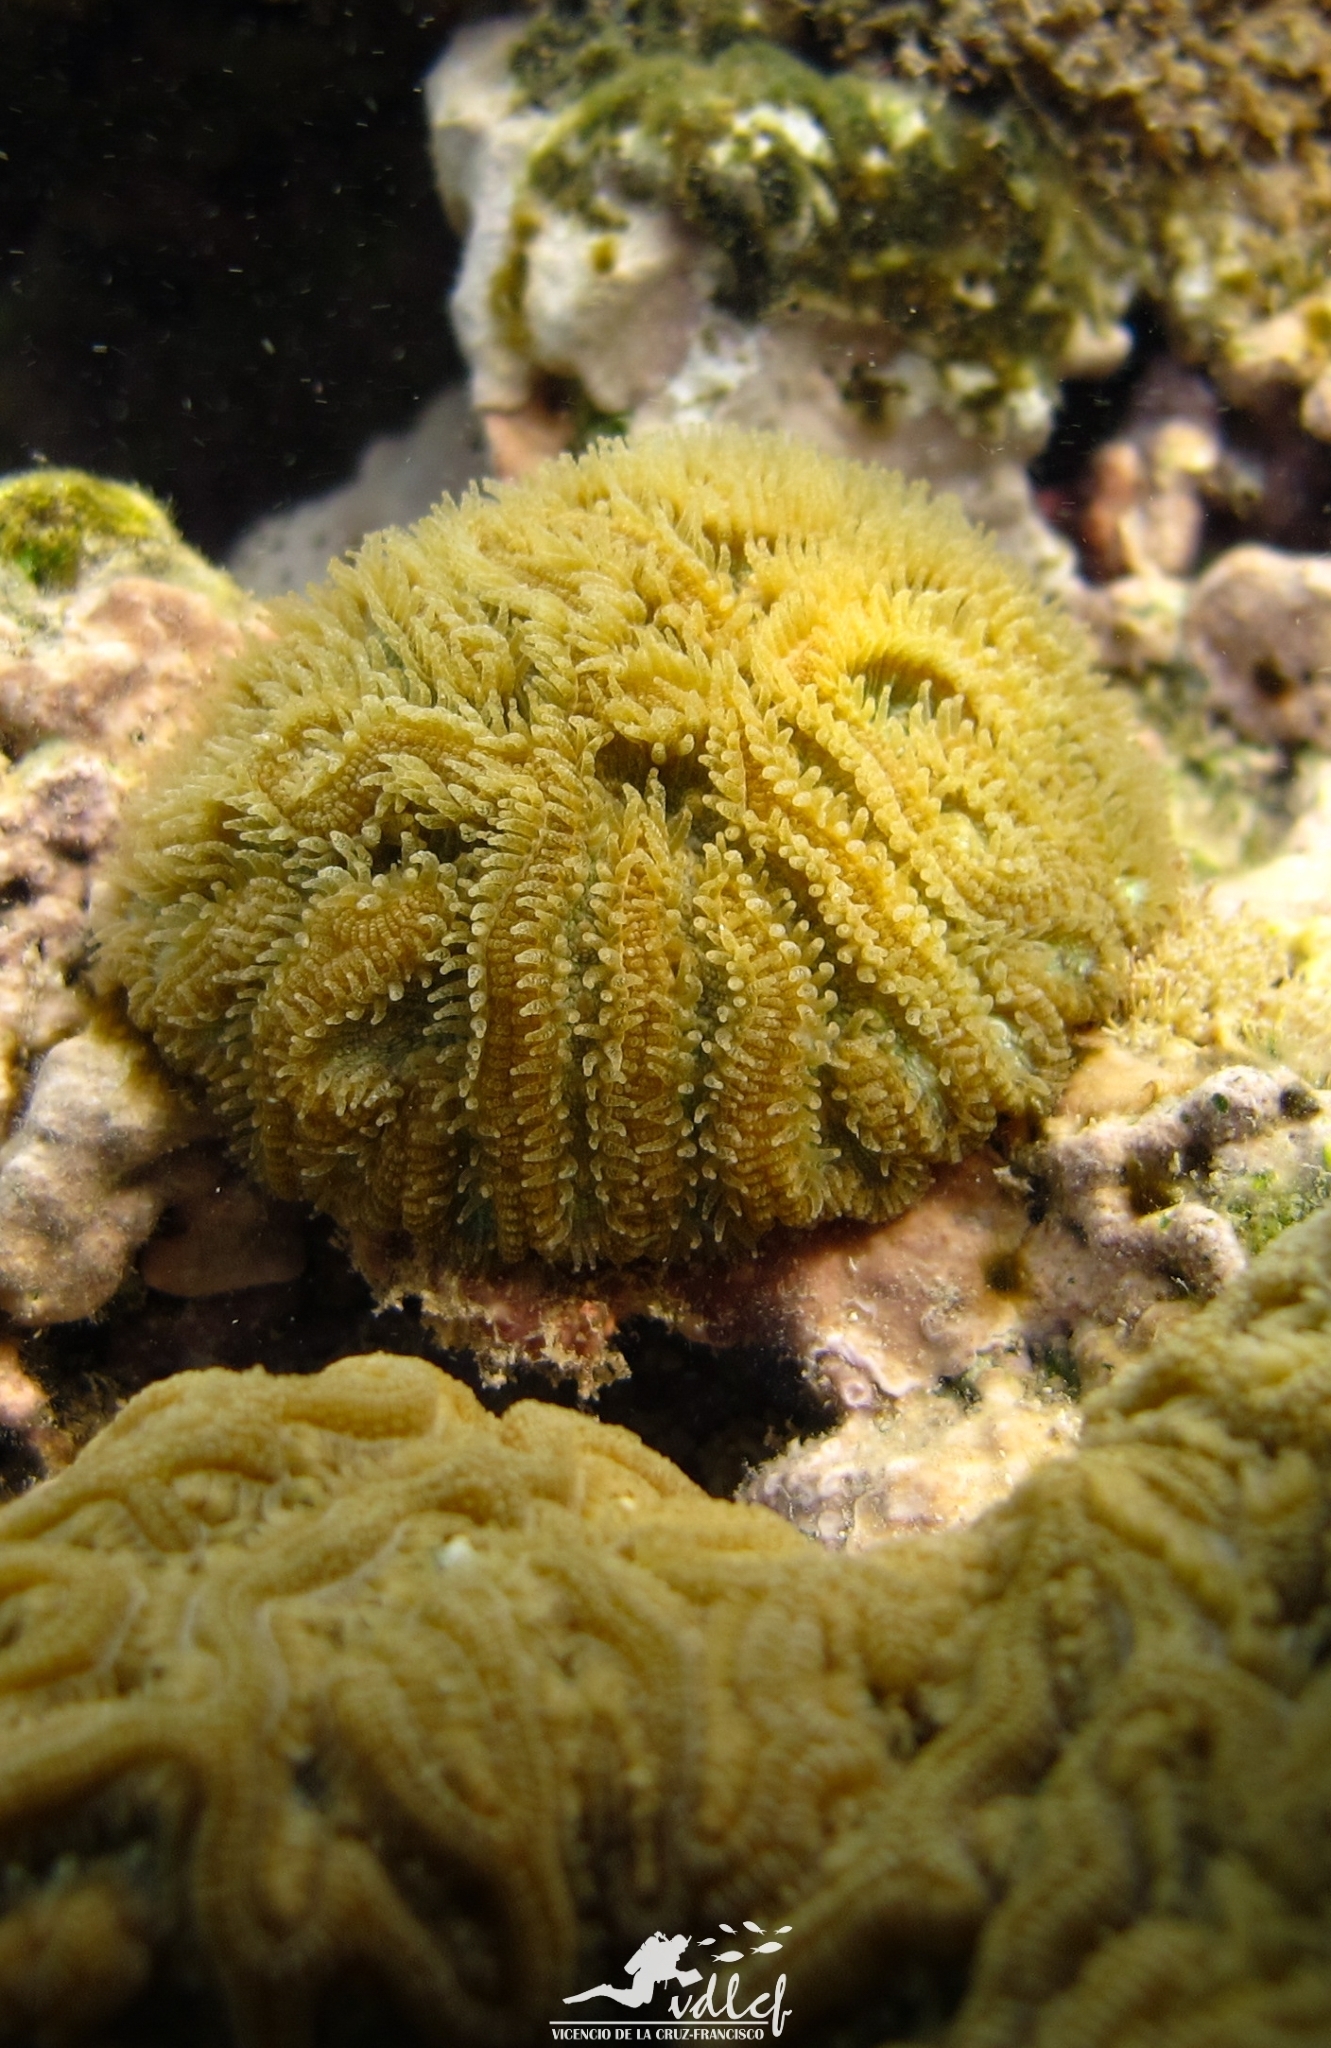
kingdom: Animalia
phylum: Cnidaria
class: Anthozoa
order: Scleractinia
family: Faviidae
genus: Pseudodiploria
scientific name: Pseudodiploria clivosa
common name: Knobby brain coral
